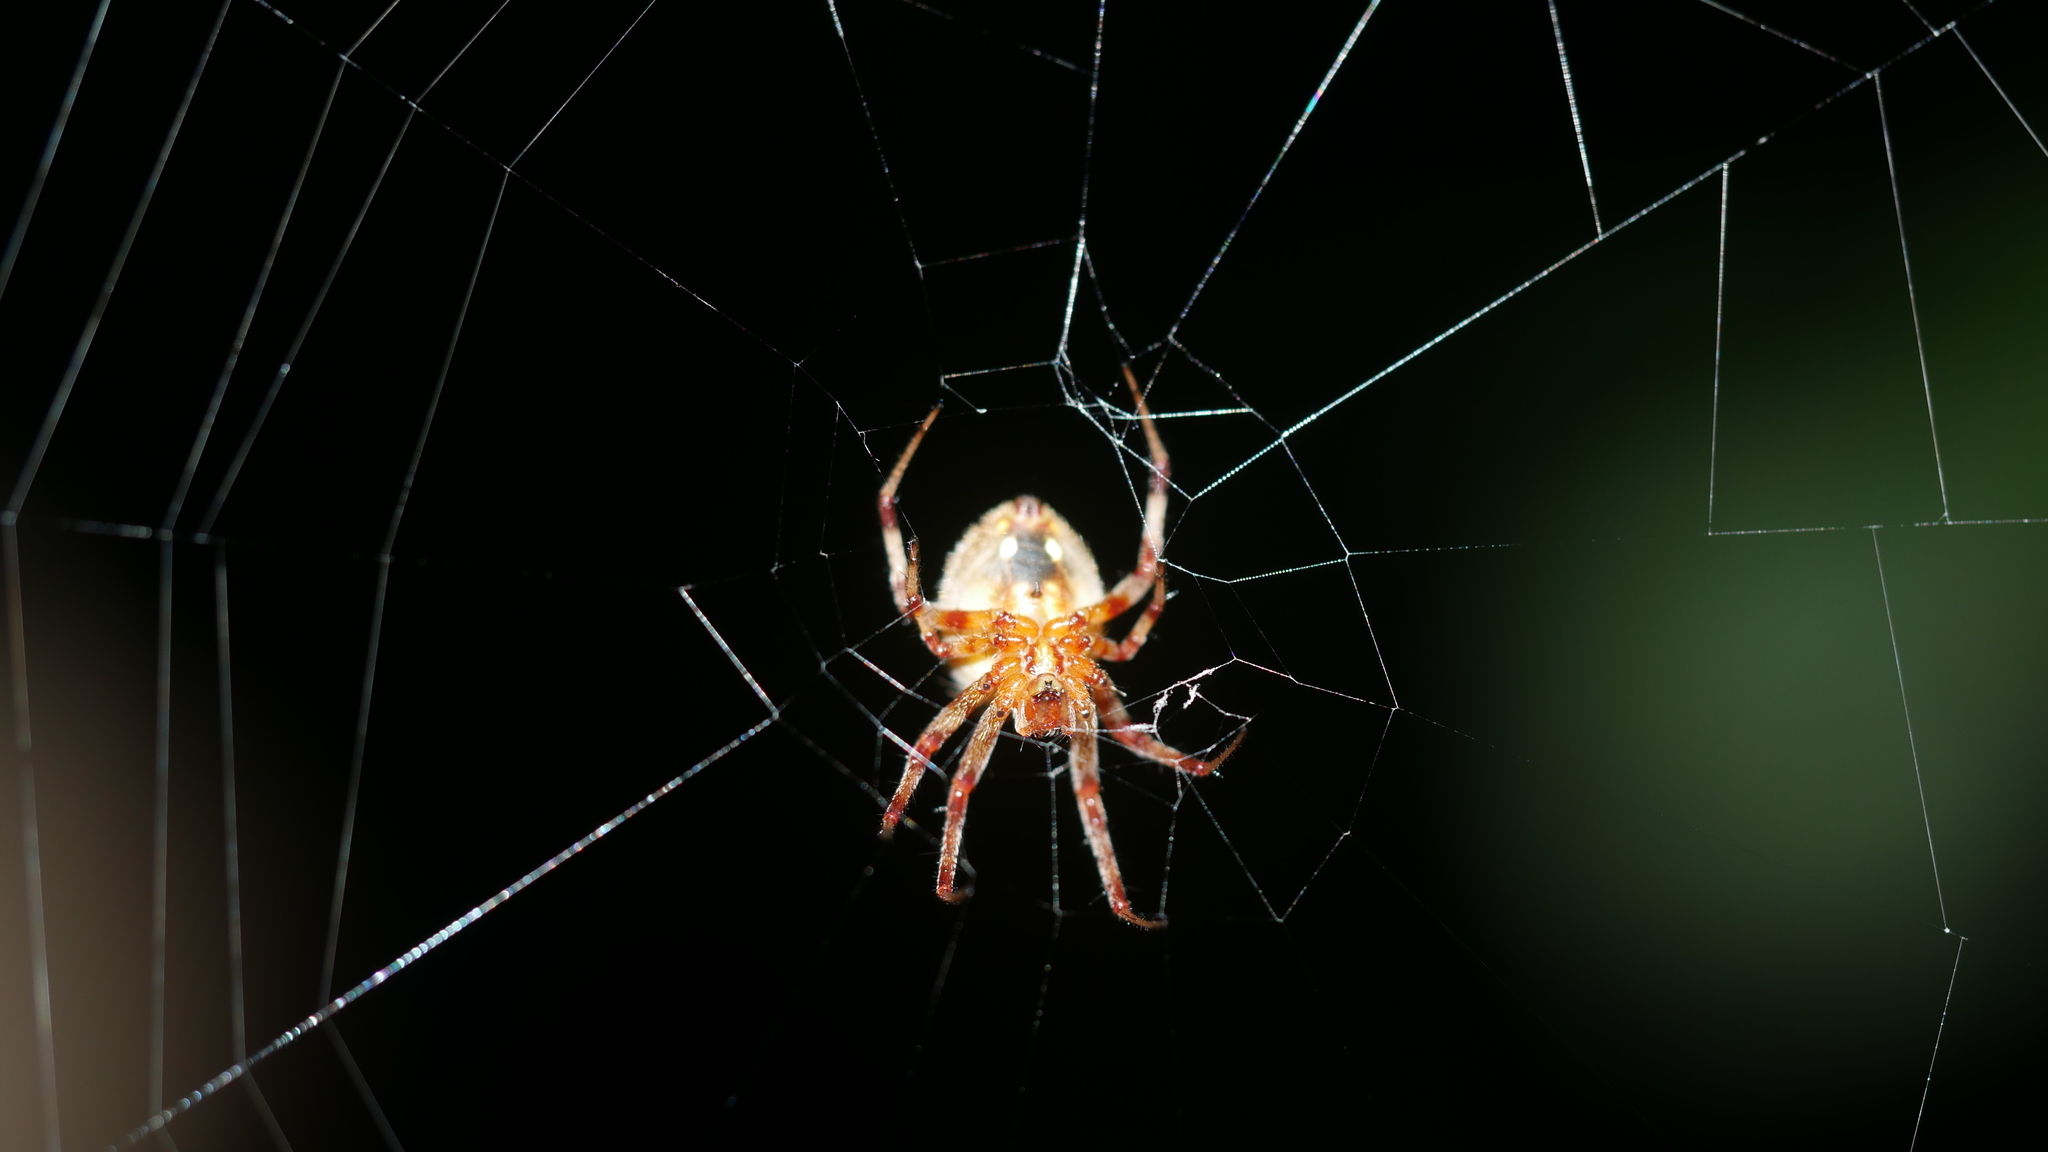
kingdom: Animalia
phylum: Arthropoda
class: Arachnida
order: Araneae
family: Araneidae
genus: Neoscona
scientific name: Neoscona
